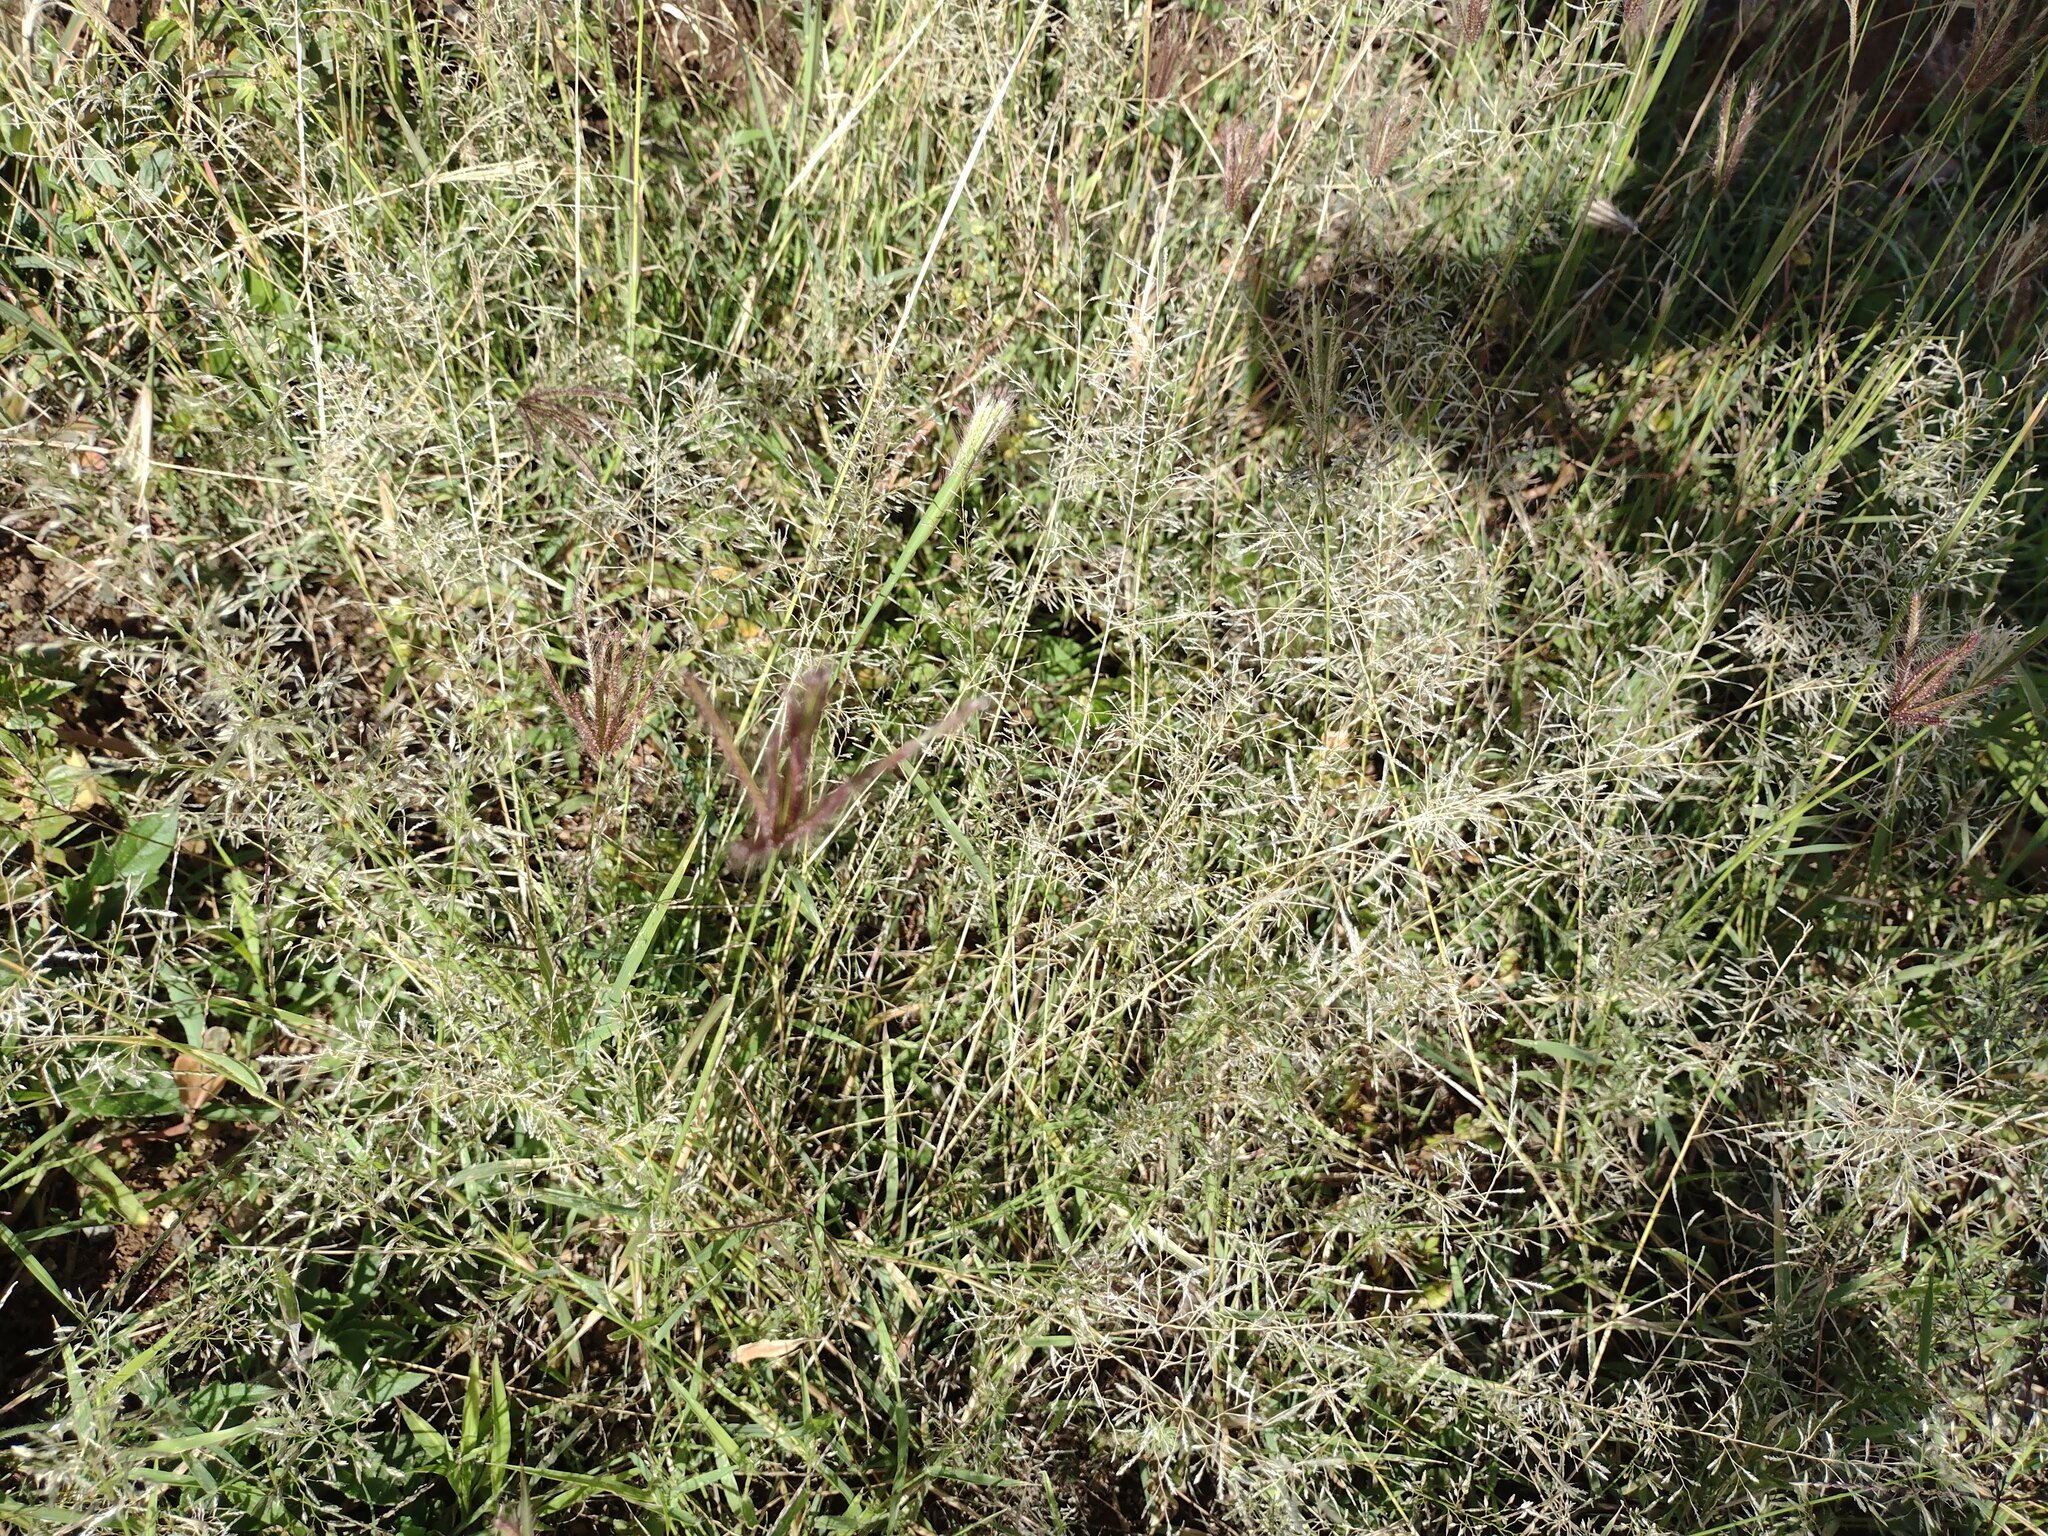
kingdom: Plantae
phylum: Tracheophyta
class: Liliopsida
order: Poales
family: Poaceae
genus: Eragrostis
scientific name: Eragrostis barrelieri
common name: Mediterranean lovegrass
